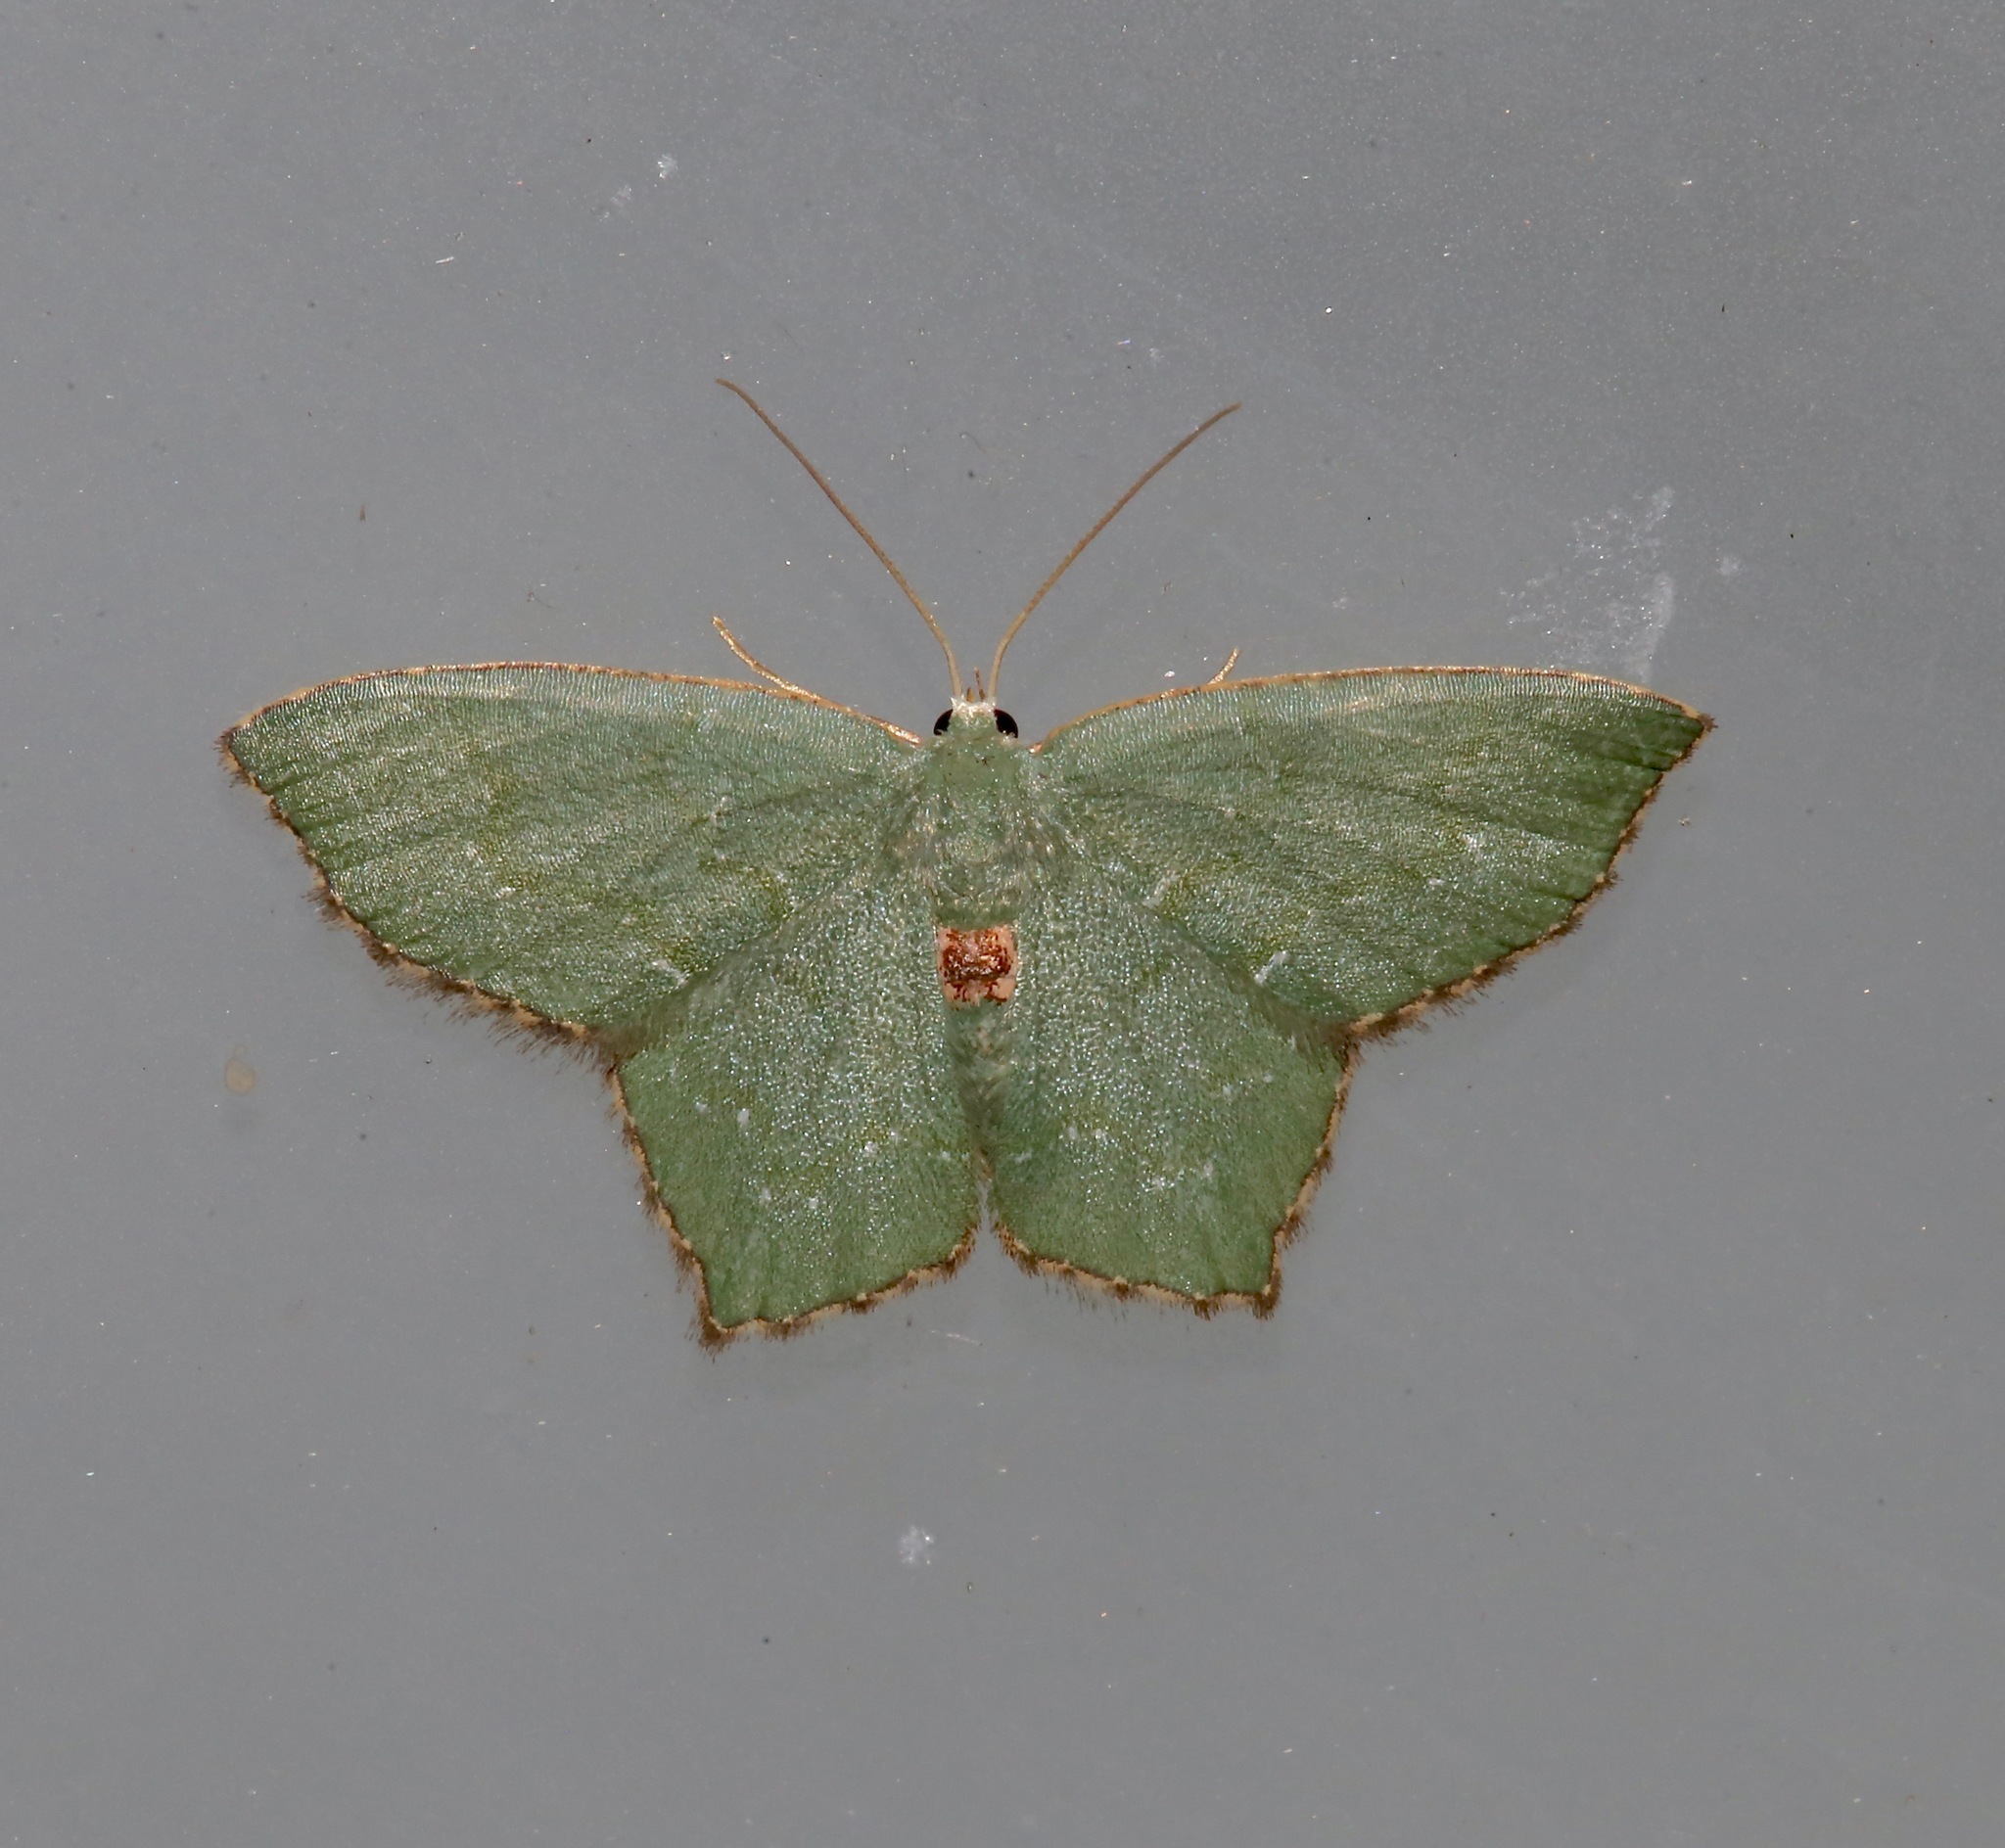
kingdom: Animalia
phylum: Arthropoda
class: Insecta
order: Lepidoptera
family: Geometridae
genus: Chloropteryx
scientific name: Chloropteryx tepperaria
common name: Angle winged emerald moth
